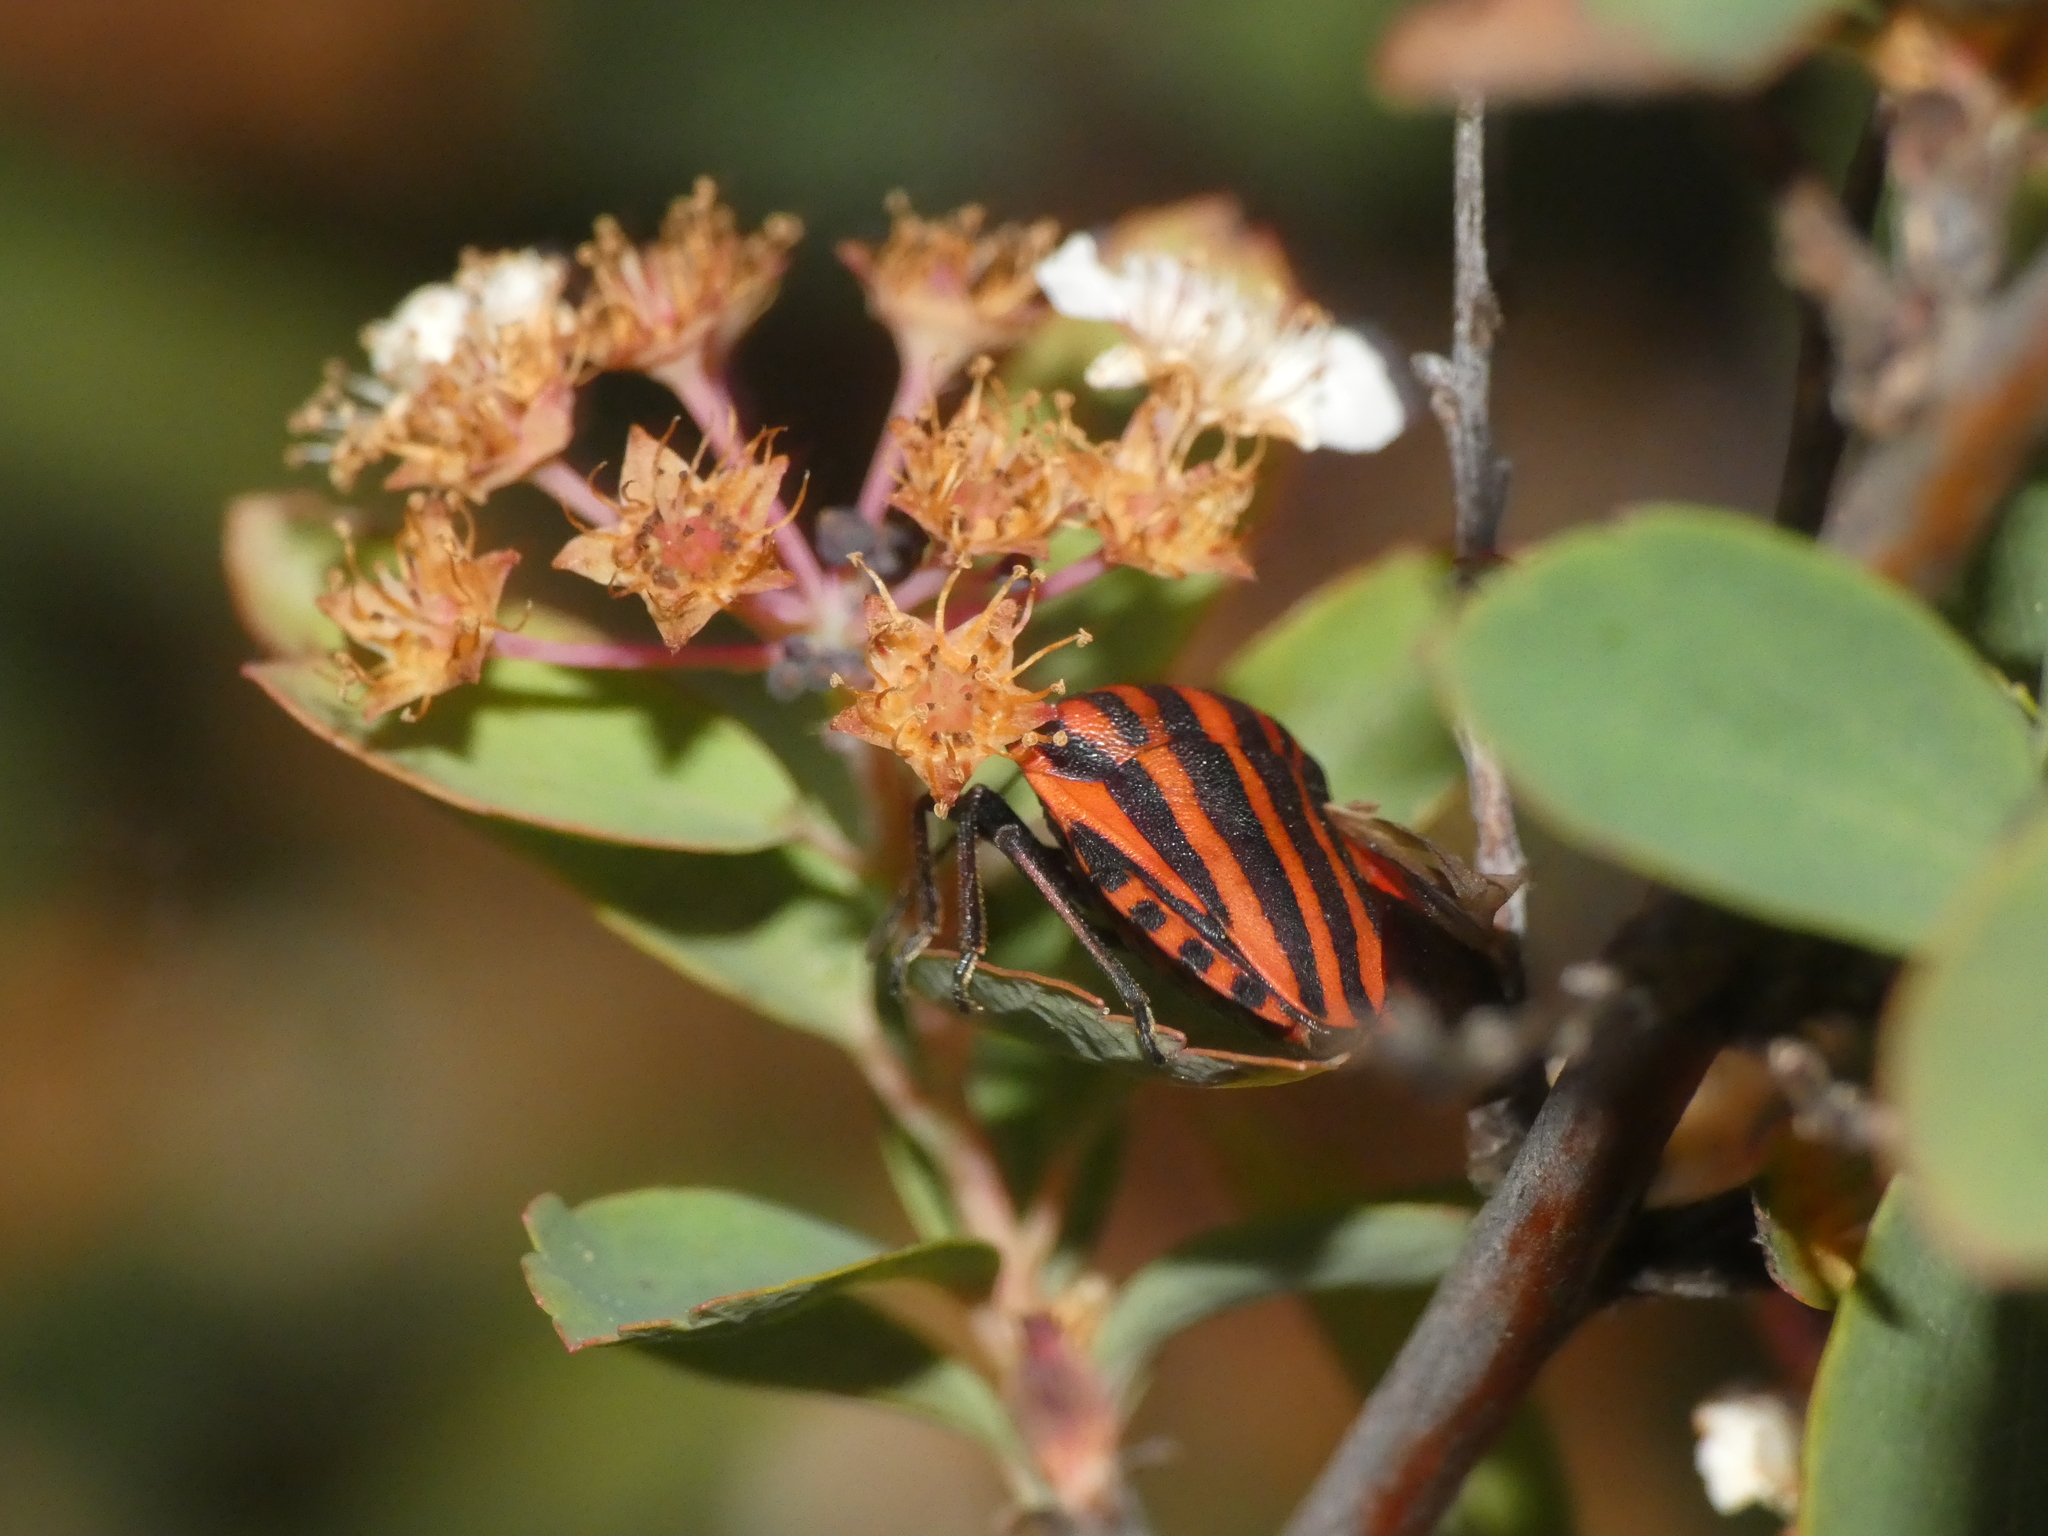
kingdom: Animalia
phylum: Arthropoda
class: Insecta
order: Hemiptera
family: Pentatomidae
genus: Graphosoma
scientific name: Graphosoma italicum
